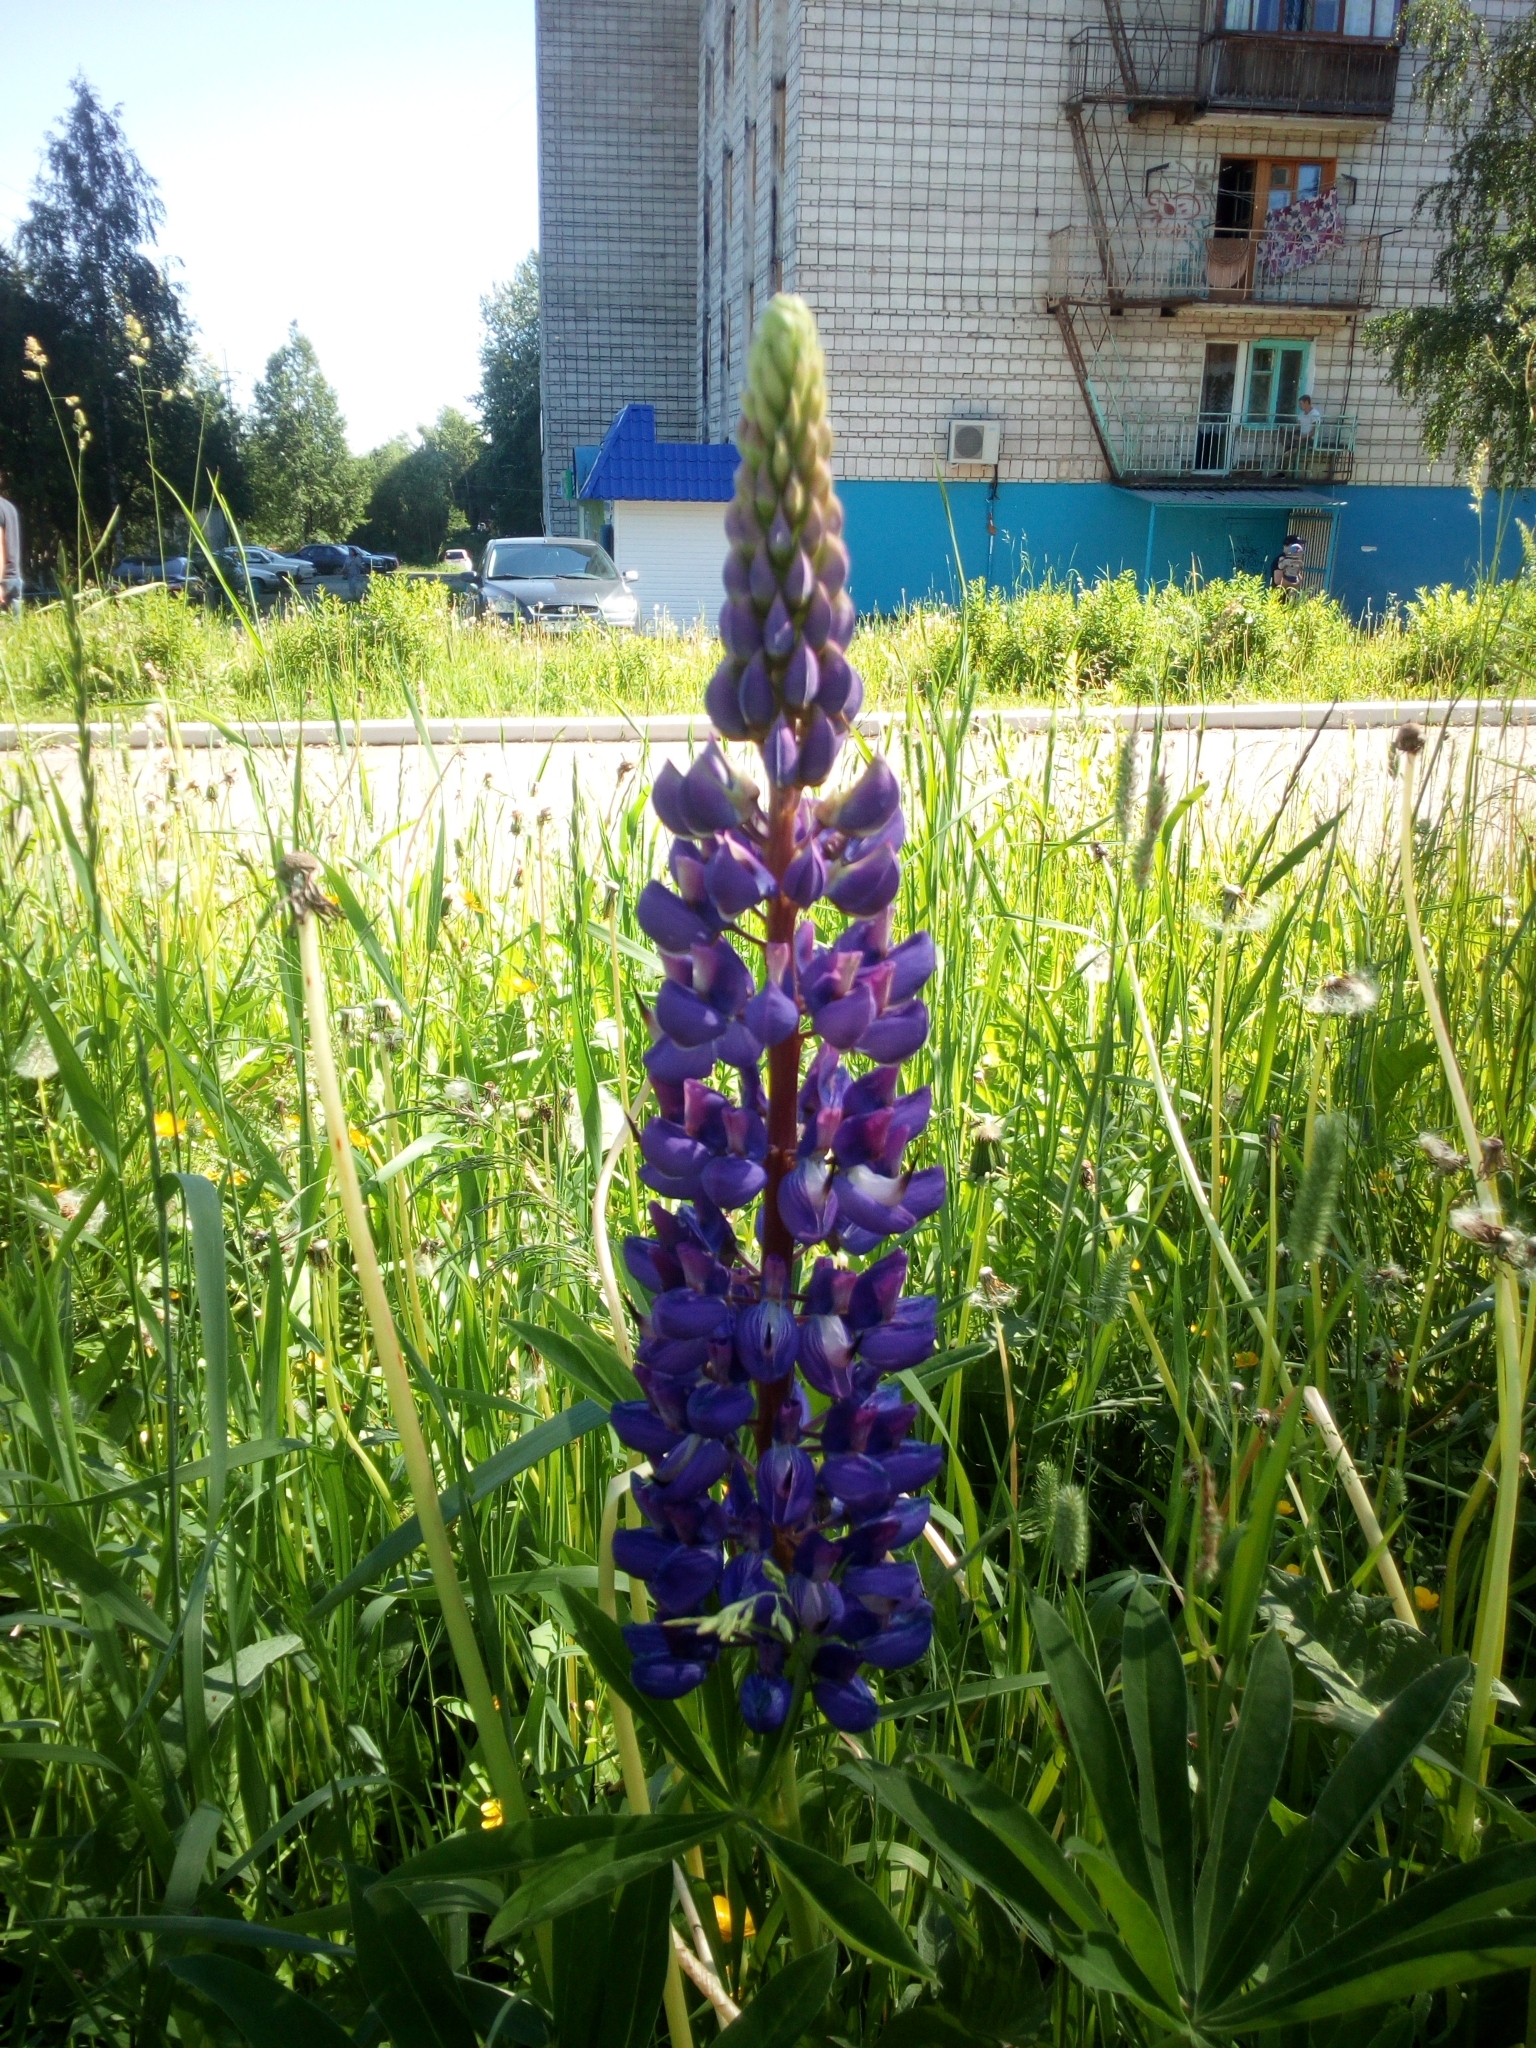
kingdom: Plantae
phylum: Tracheophyta
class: Magnoliopsida
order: Fabales
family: Fabaceae
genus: Lupinus
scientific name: Lupinus polyphyllus
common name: Garden lupin
